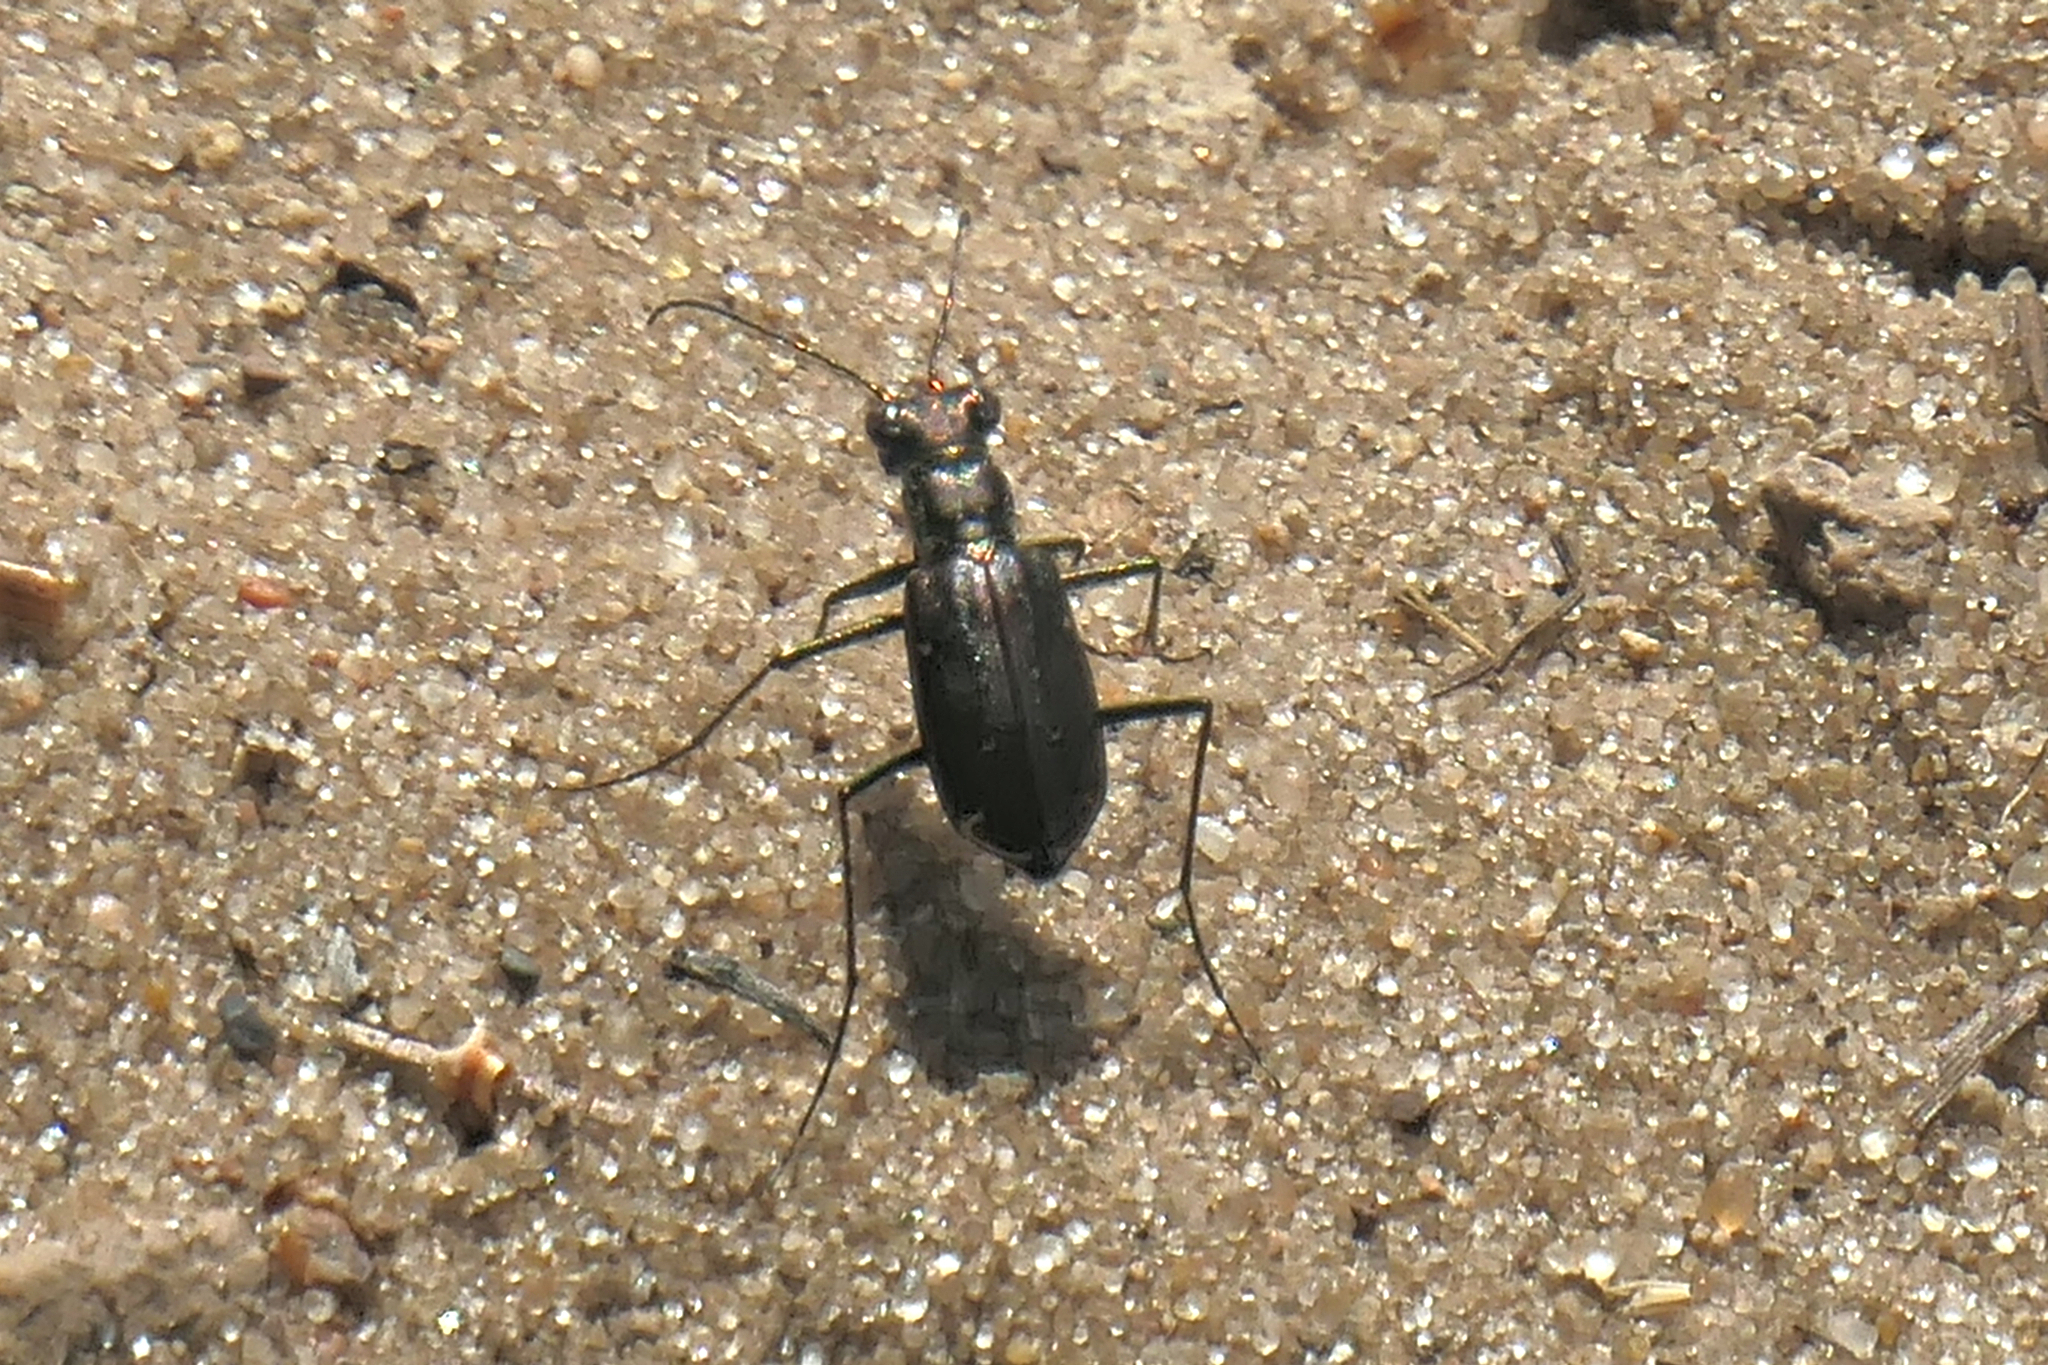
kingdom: Animalia
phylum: Arthropoda
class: Insecta
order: Coleoptera
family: Carabidae
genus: Cicindela
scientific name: Cicindela punctulata
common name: Punctured tiger beetle
